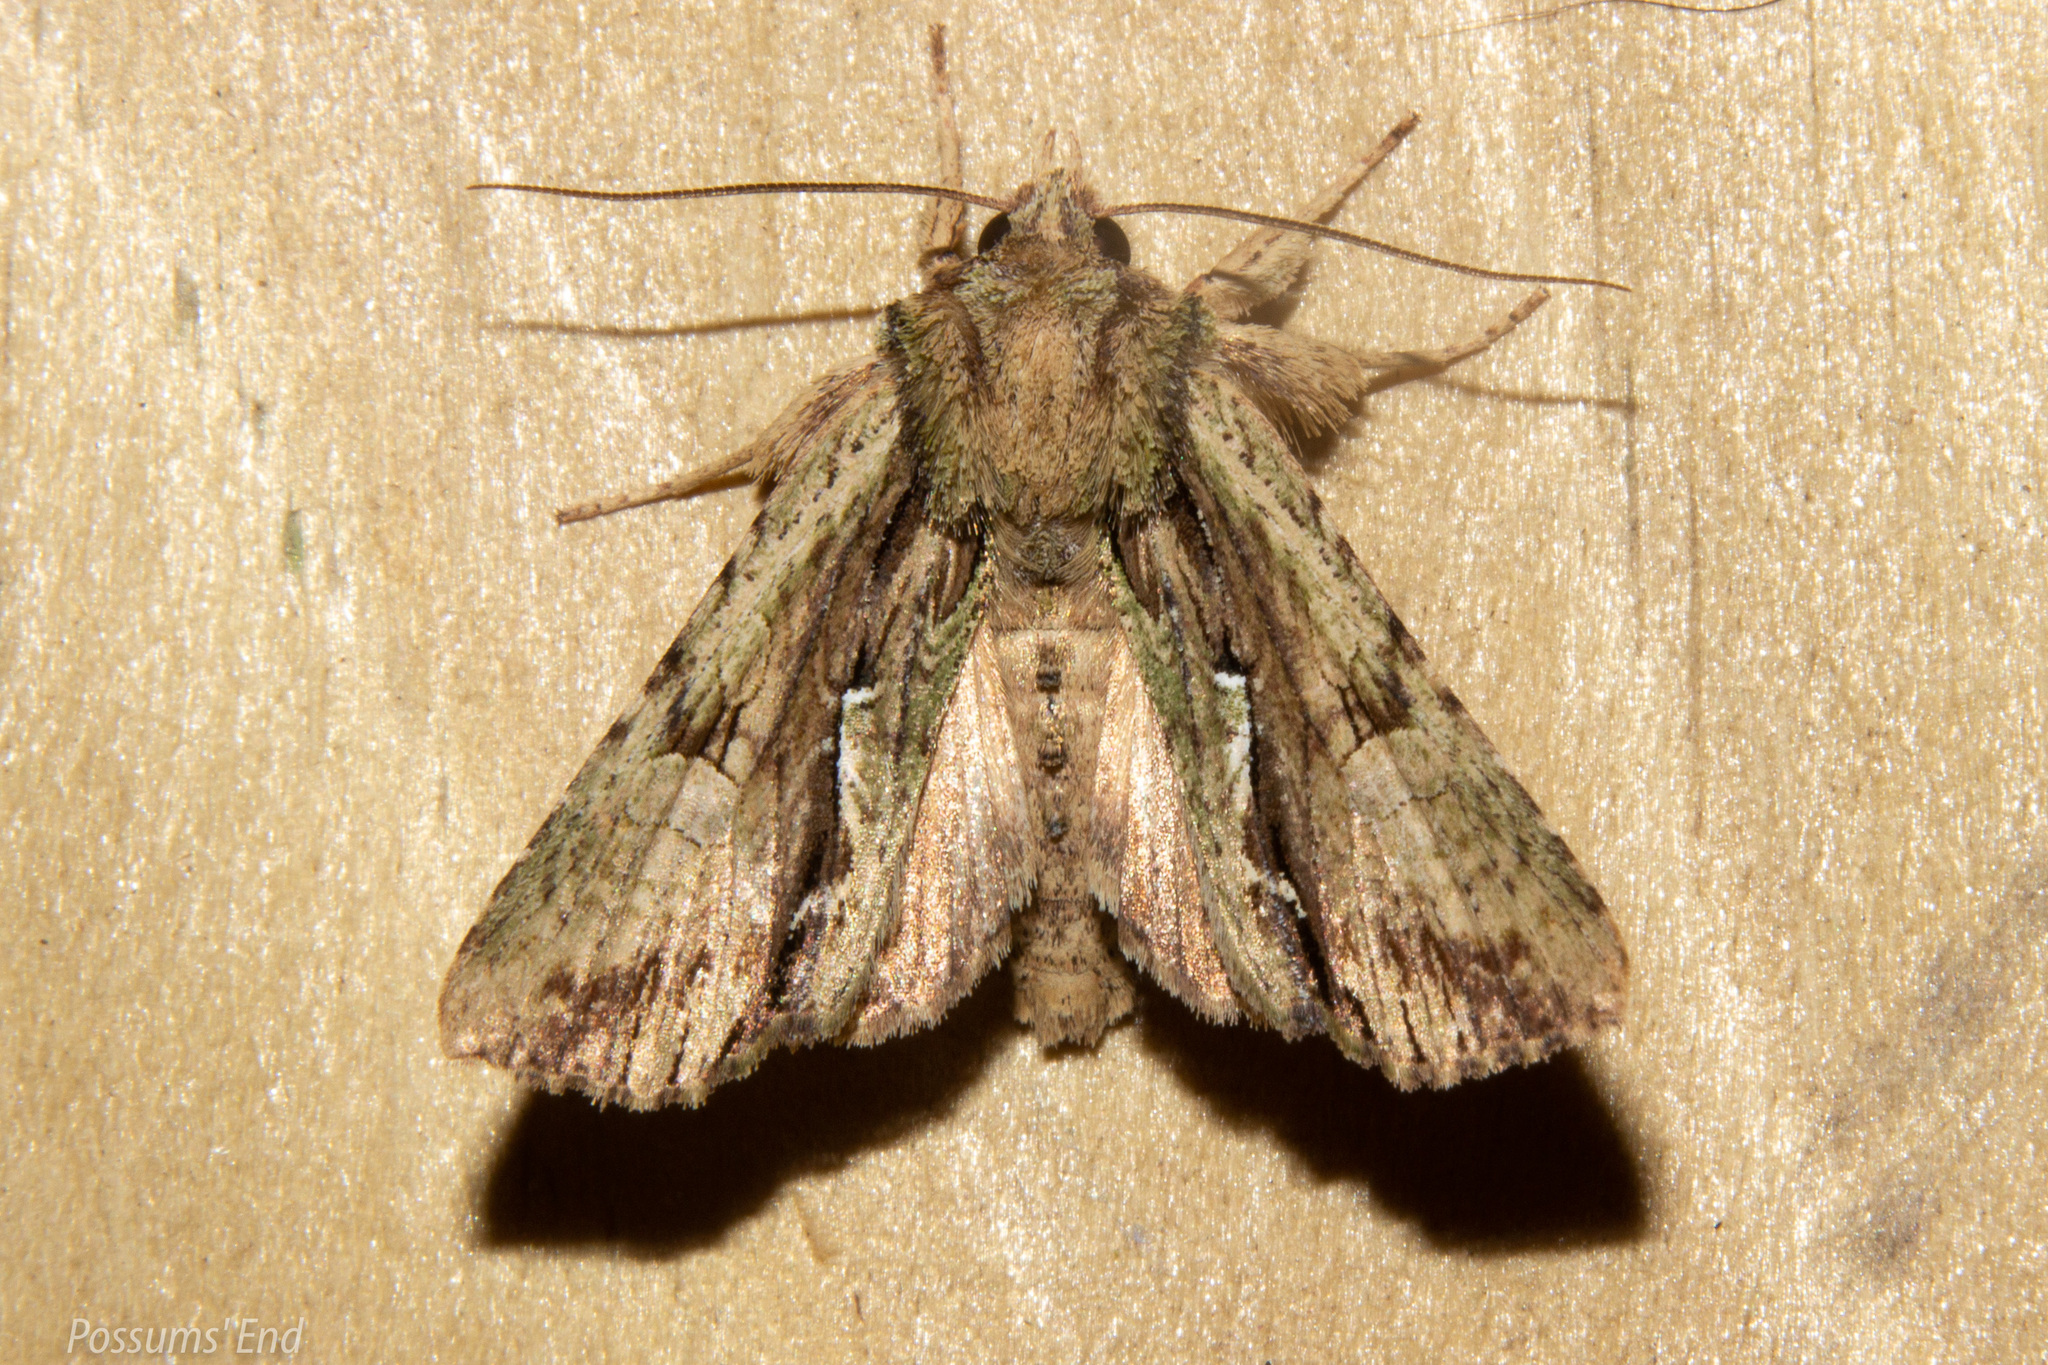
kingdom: Animalia
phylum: Arthropoda
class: Insecta
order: Lepidoptera
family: Noctuidae
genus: Meterana
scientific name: Meterana decorata
